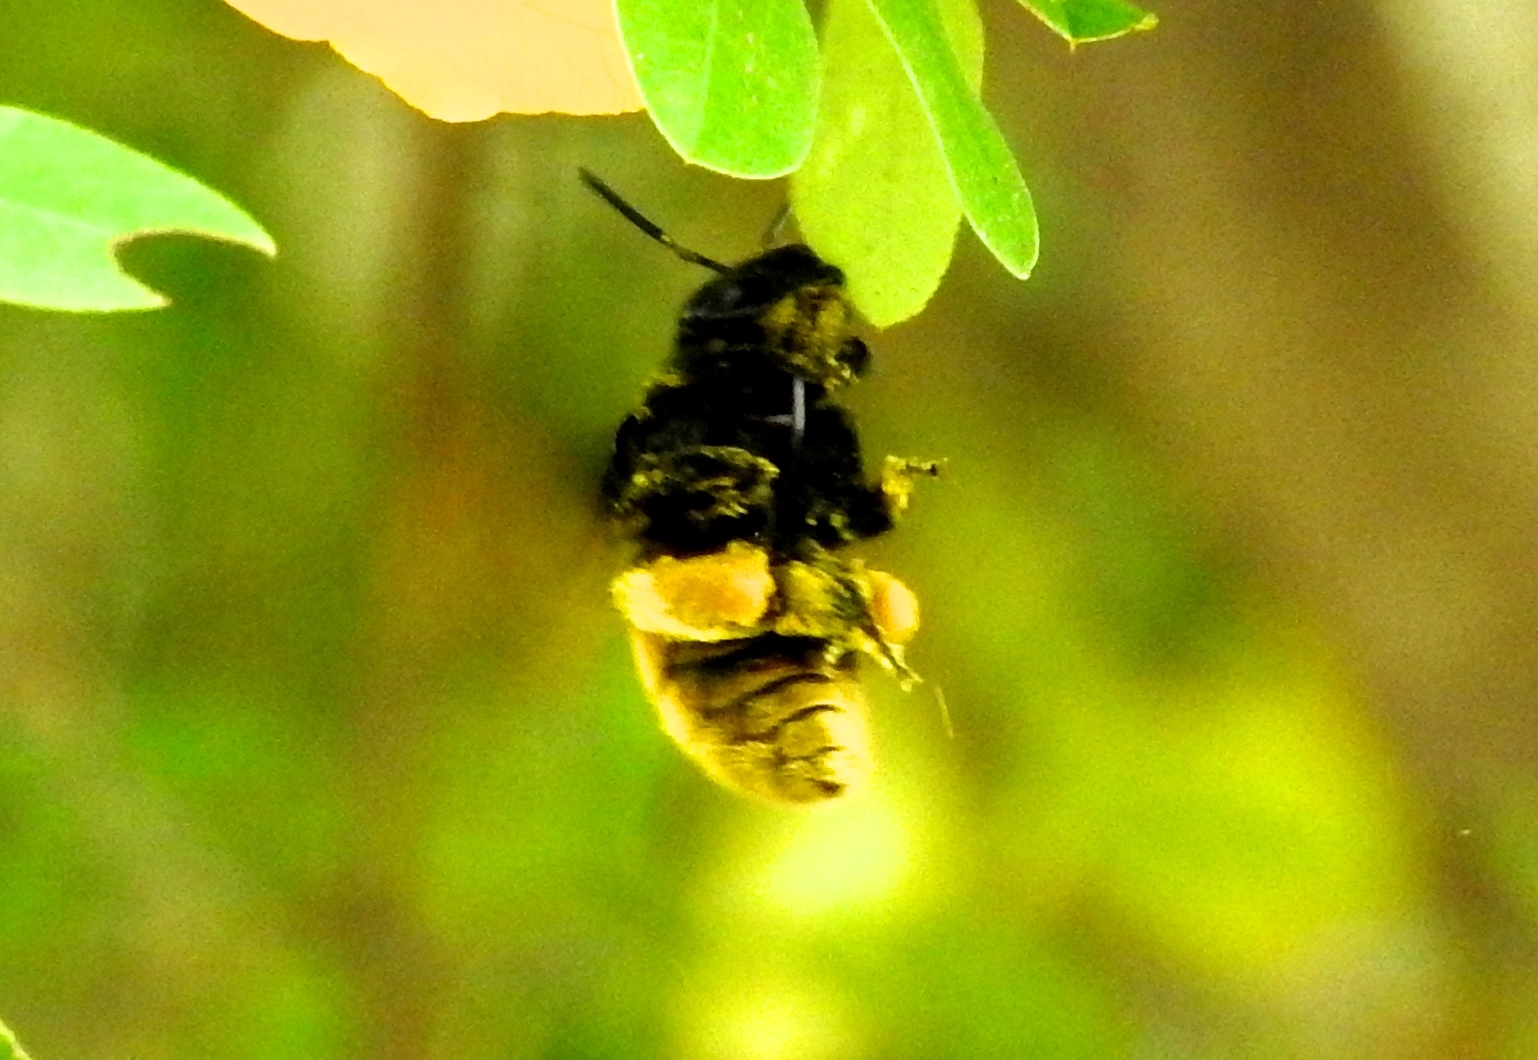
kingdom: Animalia
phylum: Arthropoda
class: Insecta
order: Hymenoptera
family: Apidae
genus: Eulaema
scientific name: Eulaema polychroma
